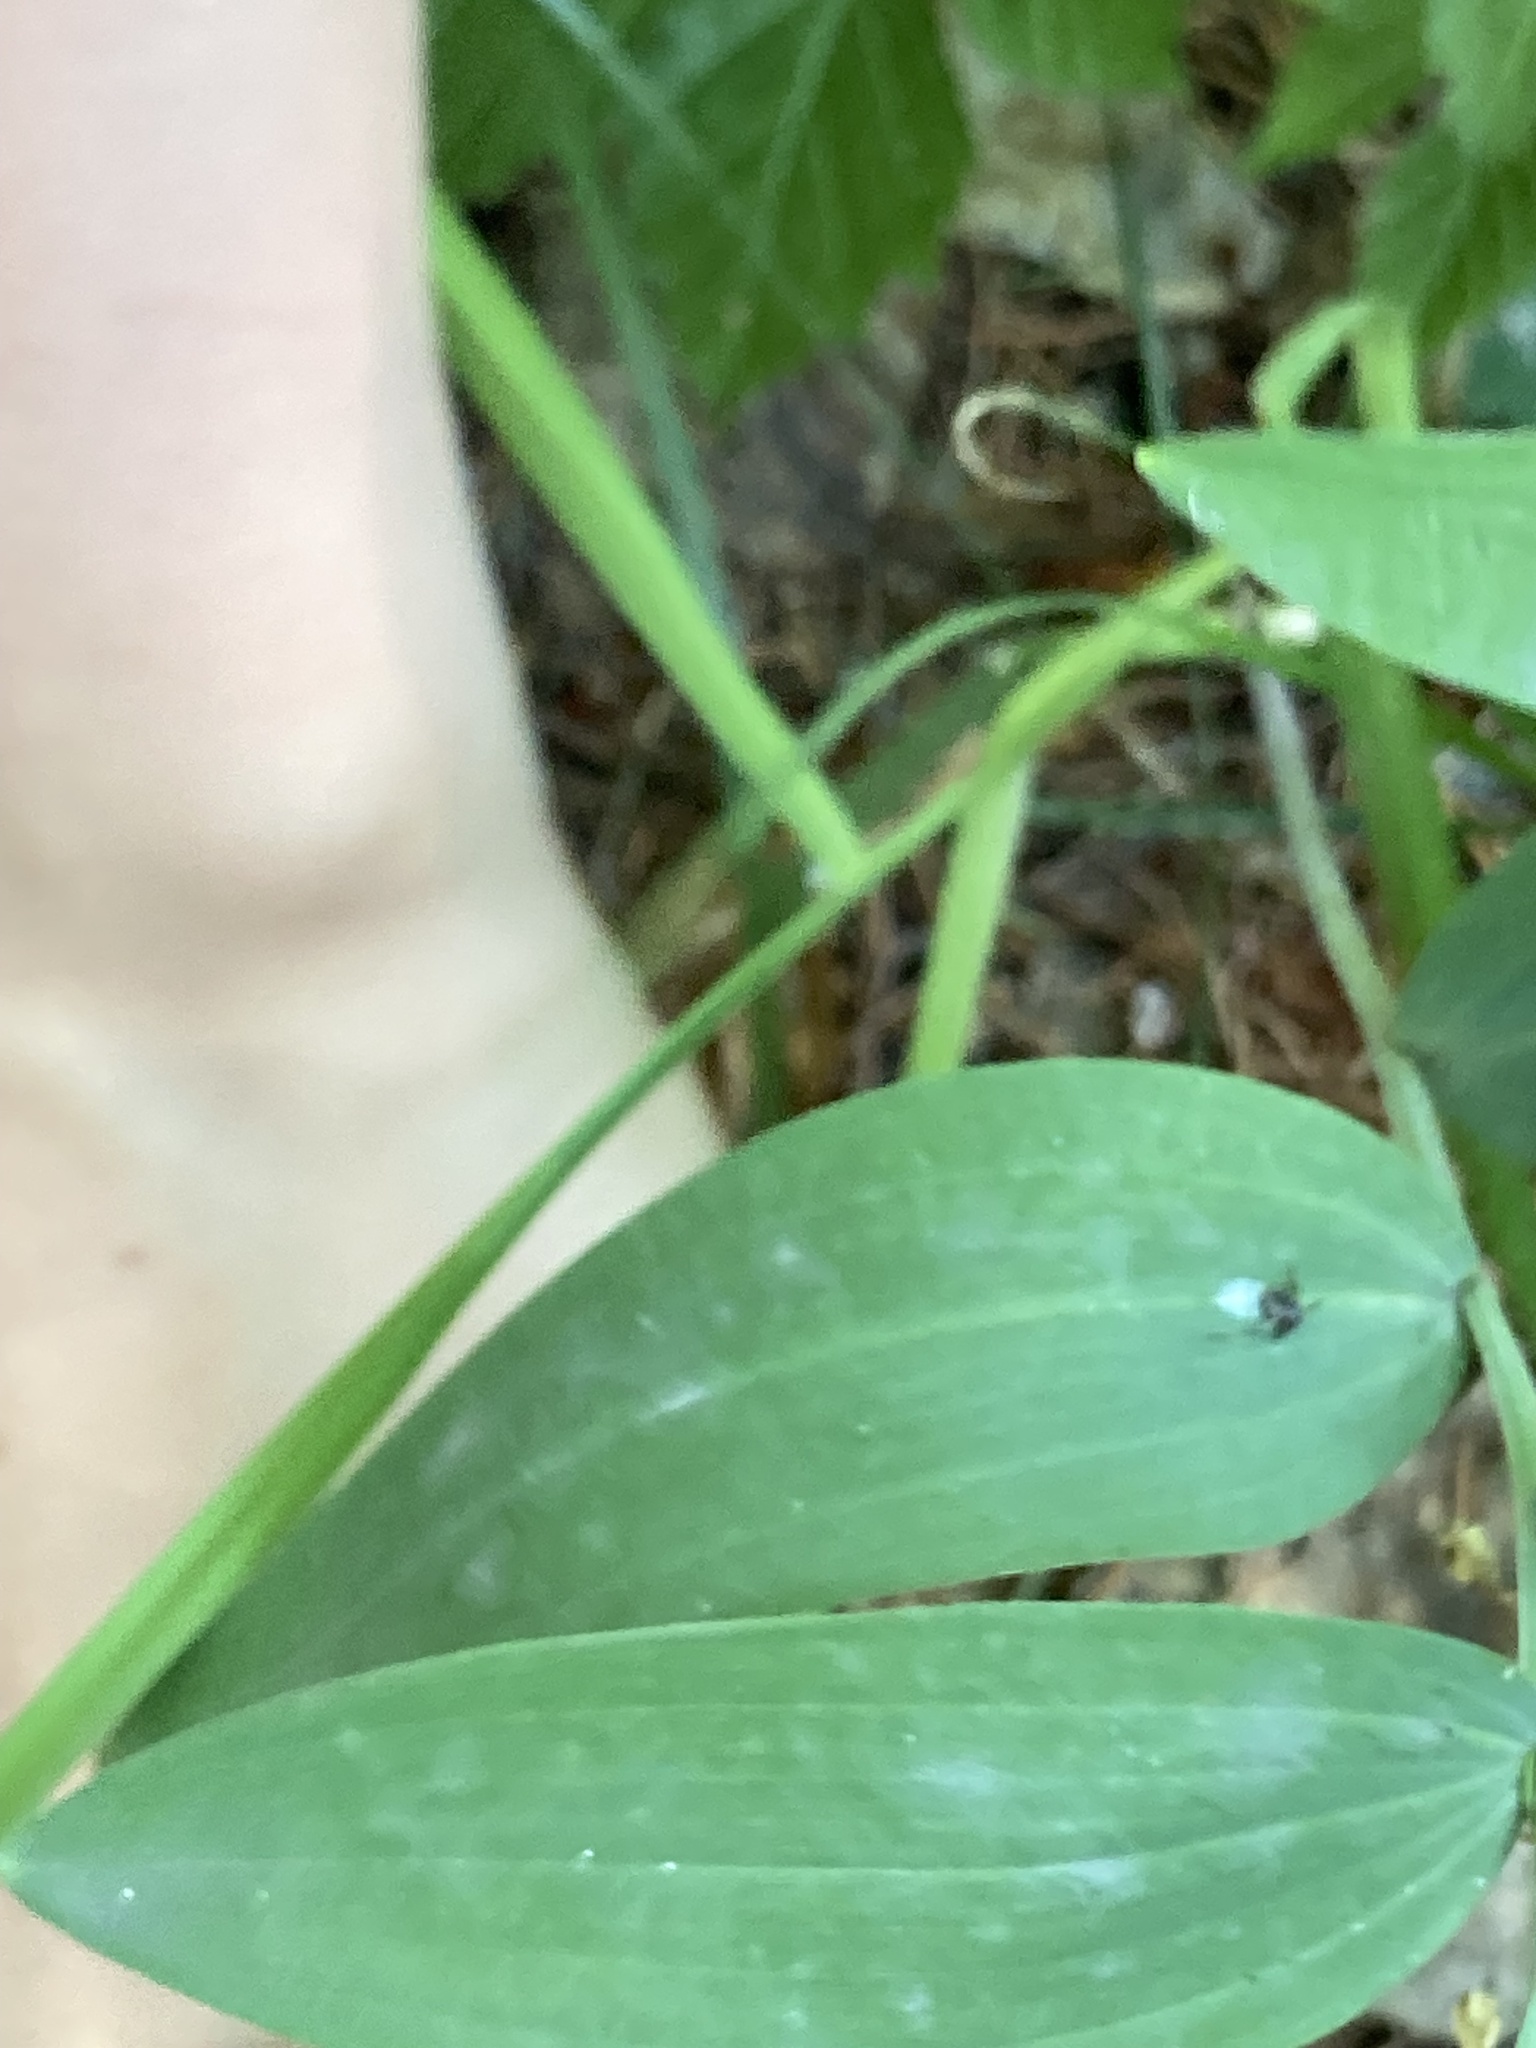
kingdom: Plantae
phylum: Tracheophyta
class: Liliopsida
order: Asparagales
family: Asparagaceae
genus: Polygonatum
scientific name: Polygonatum odoratum
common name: Angular solomon's-seal
